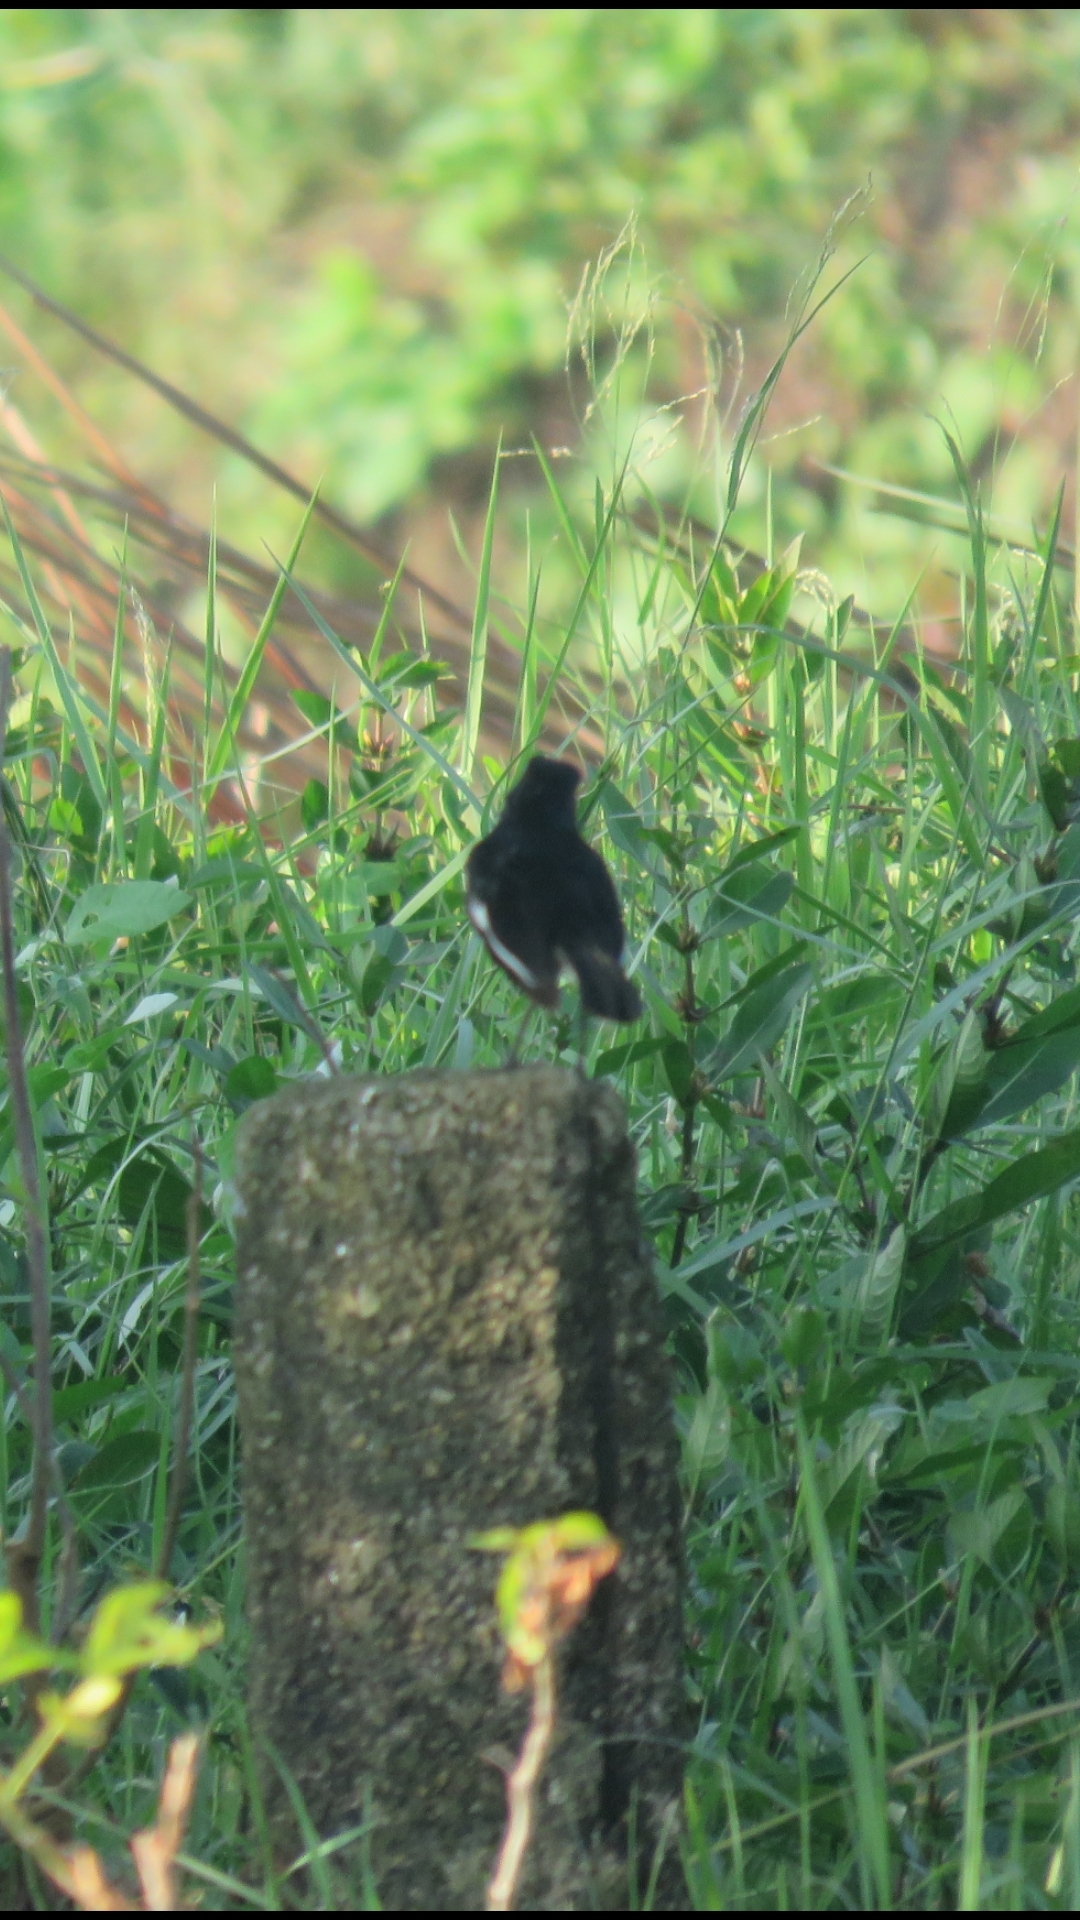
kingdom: Animalia
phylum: Chordata
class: Aves
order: Passeriformes
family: Muscicapidae
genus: Copsychus
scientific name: Copsychus saularis
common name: Oriental magpie-robin
